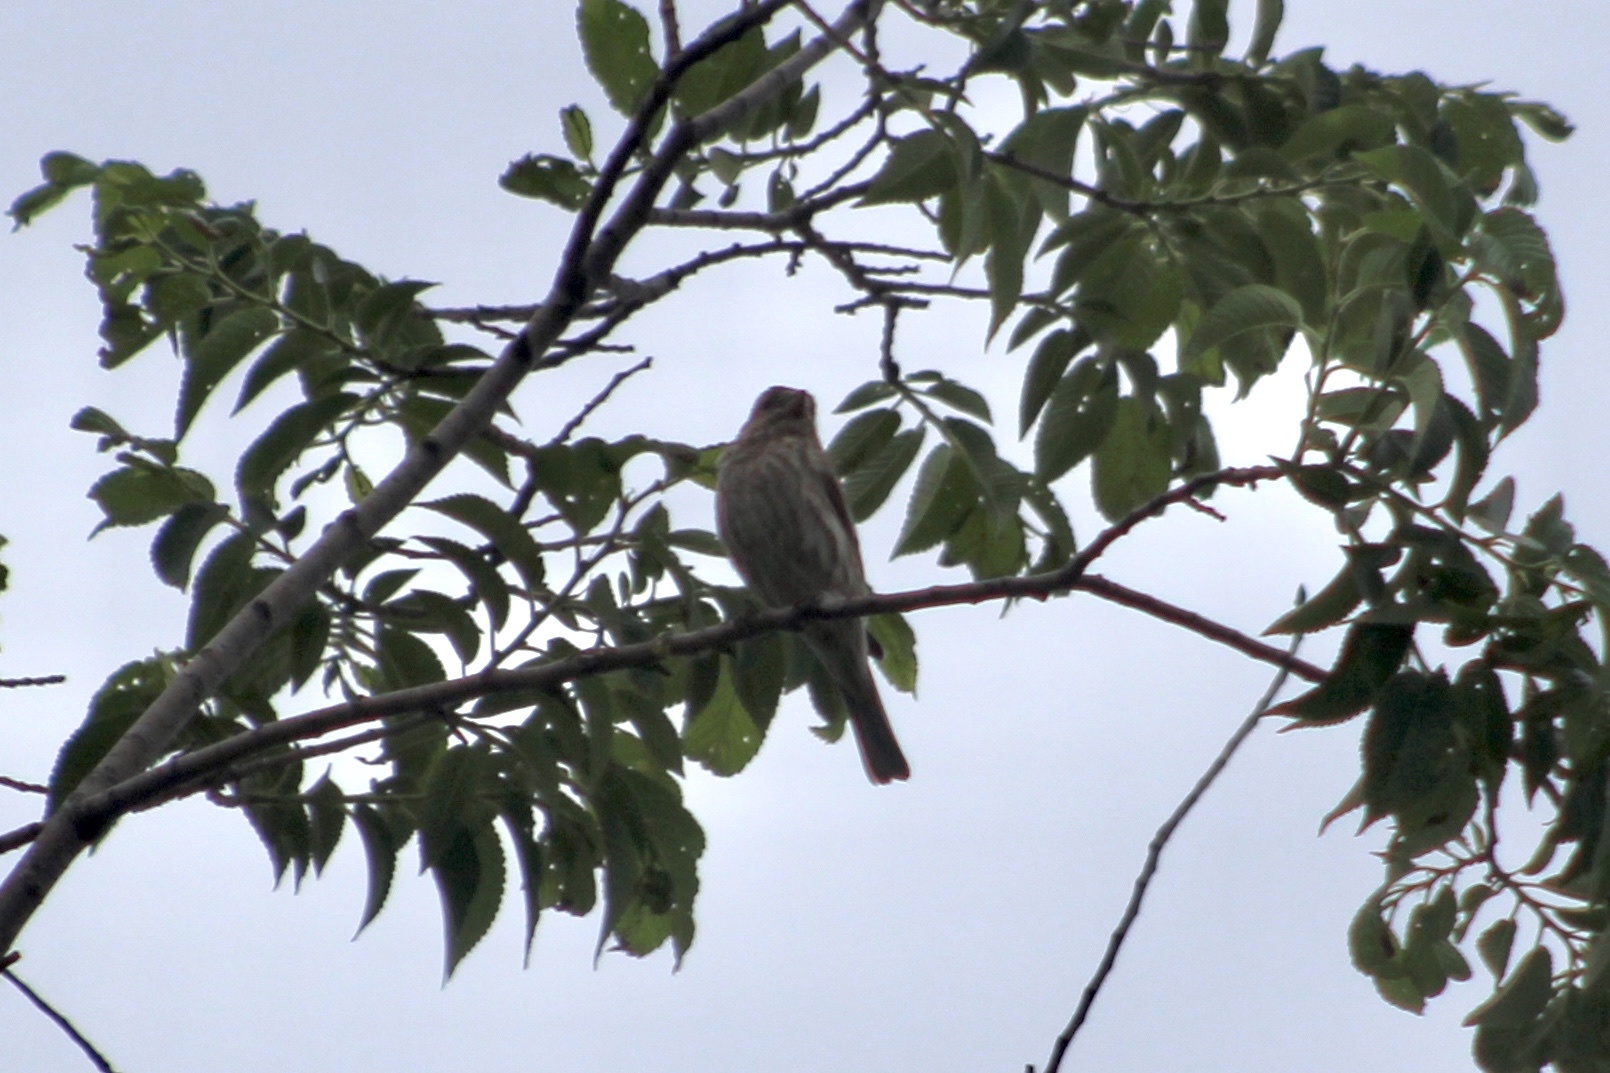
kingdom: Animalia
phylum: Chordata
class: Aves
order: Passeriformes
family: Fringillidae
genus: Haemorhous
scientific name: Haemorhous mexicanus
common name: House finch
